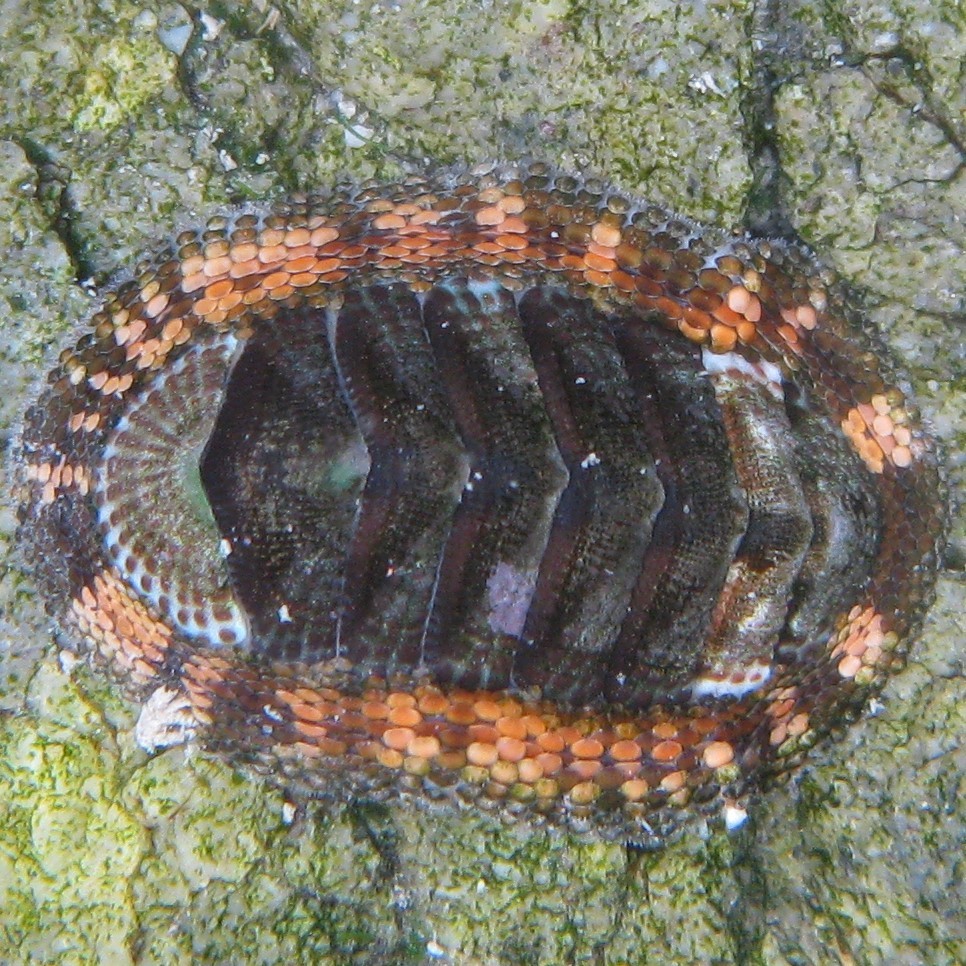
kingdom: Animalia
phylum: Mollusca
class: Polyplacophora
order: Chitonida
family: Chitonidae
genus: Sypharochiton
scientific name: Sypharochiton sinclairi
